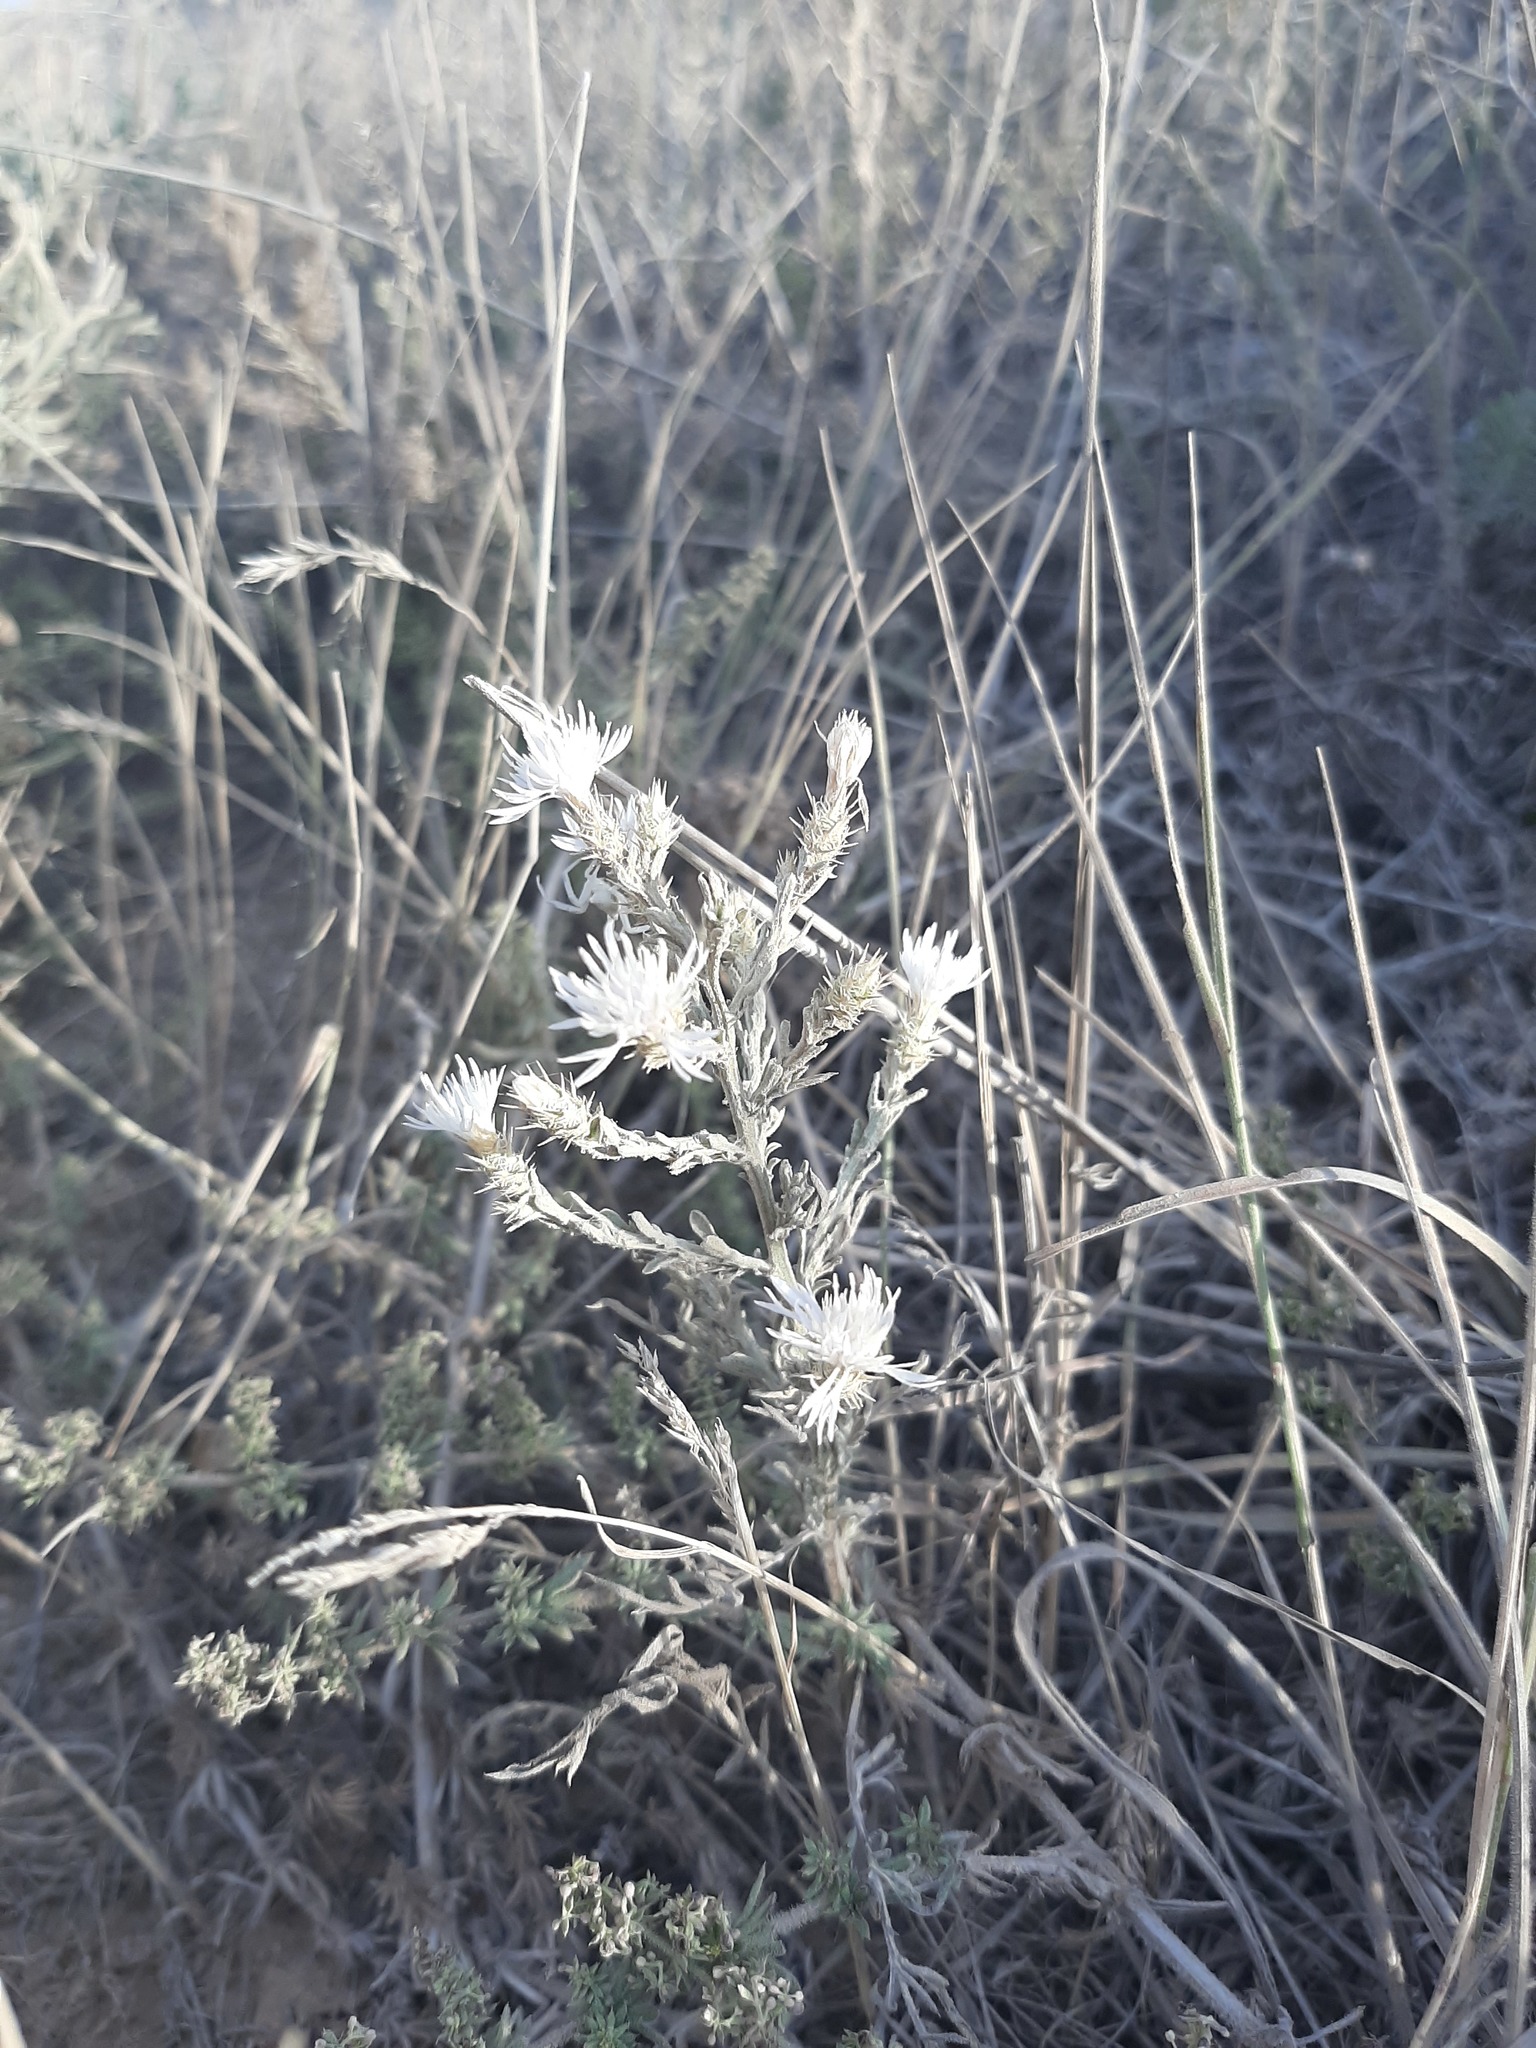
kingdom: Plantae
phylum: Tracheophyta
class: Magnoliopsida
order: Asterales
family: Asteraceae
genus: Centaurea
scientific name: Centaurea diffusa
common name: Diffuse knapweed
